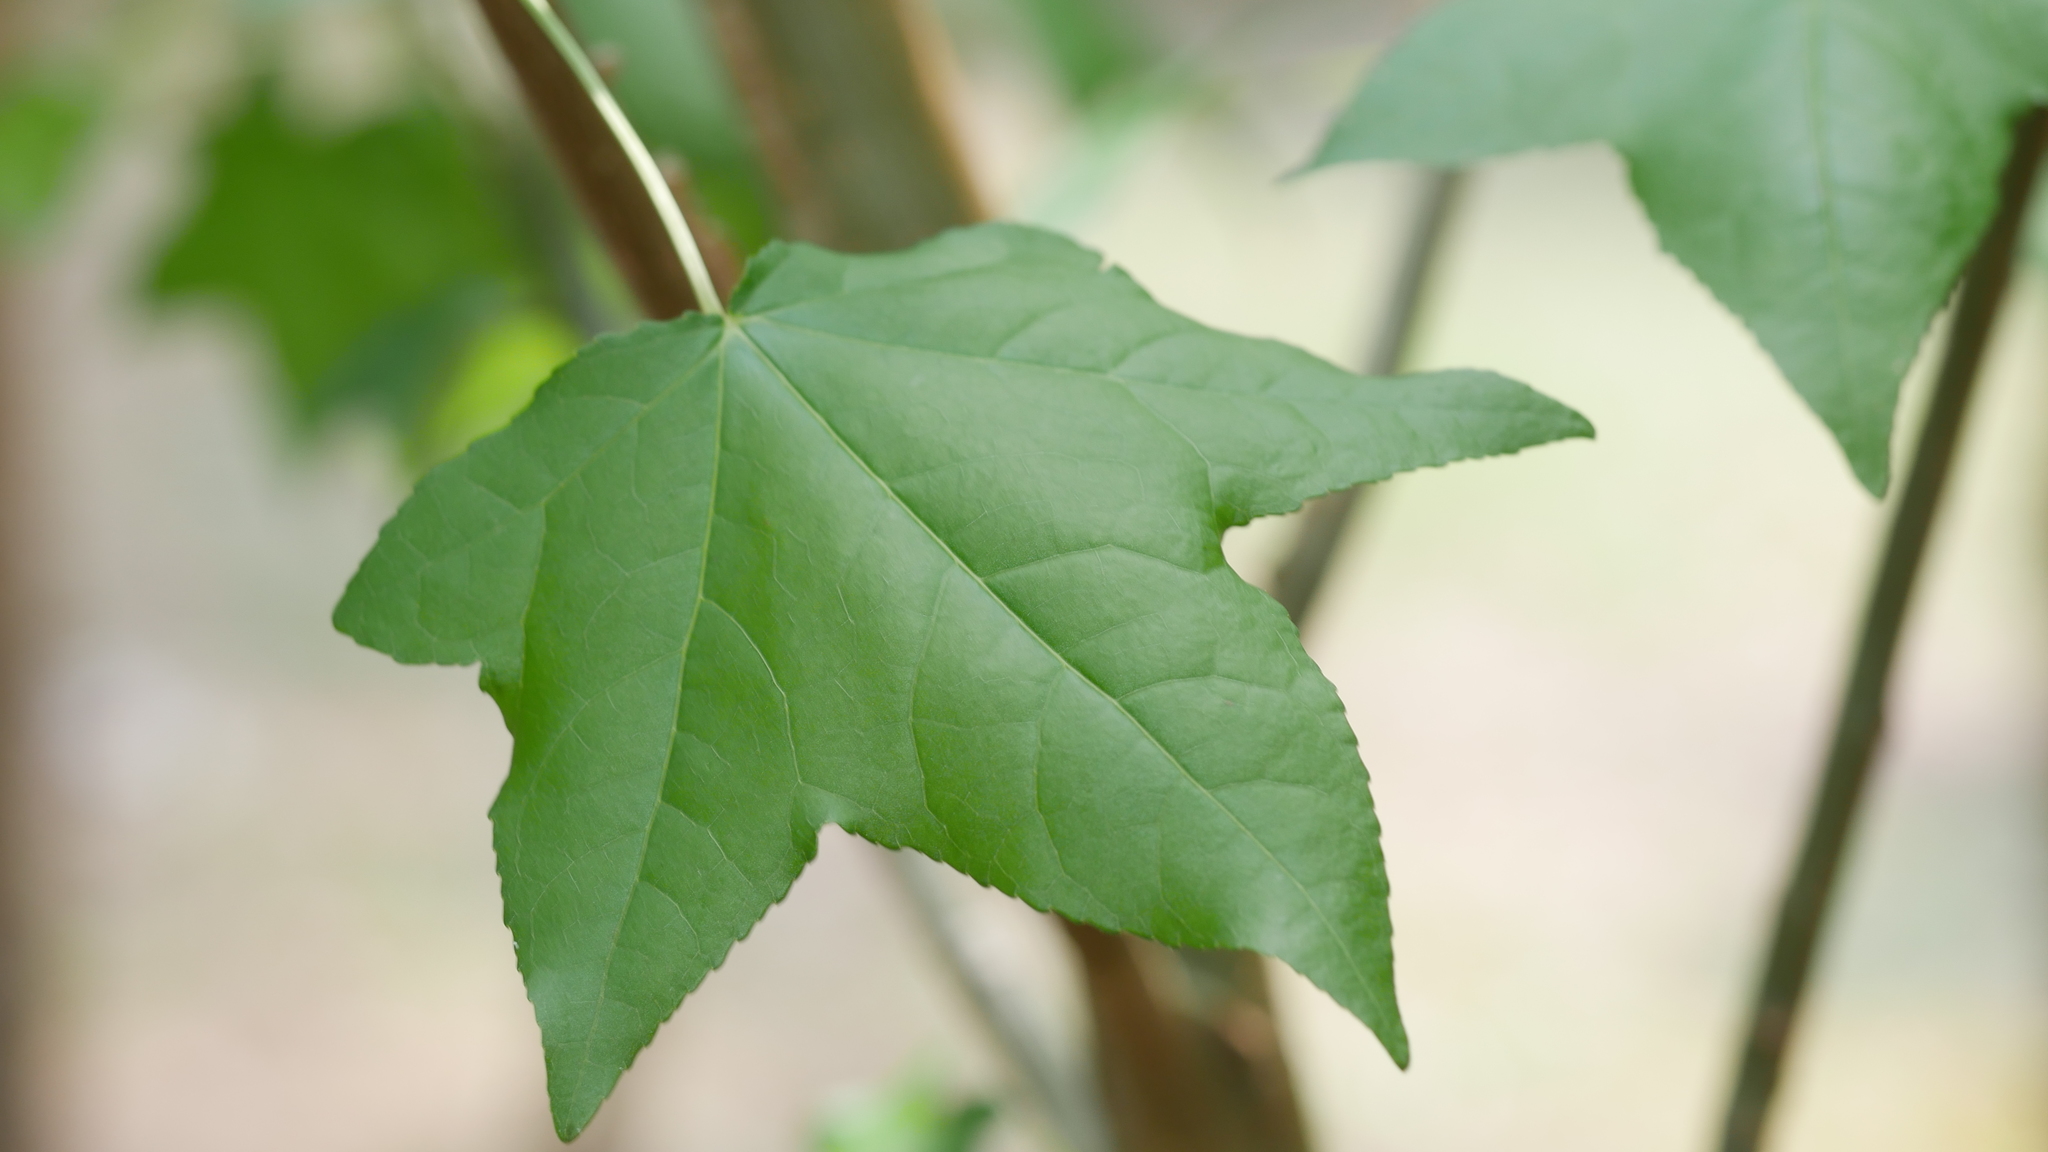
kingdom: Plantae
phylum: Tracheophyta
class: Magnoliopsida
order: Saxifragales
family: Altingiaceae
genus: Liquidambar
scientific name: Liquidambar styraciflua
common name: Sweet gum
